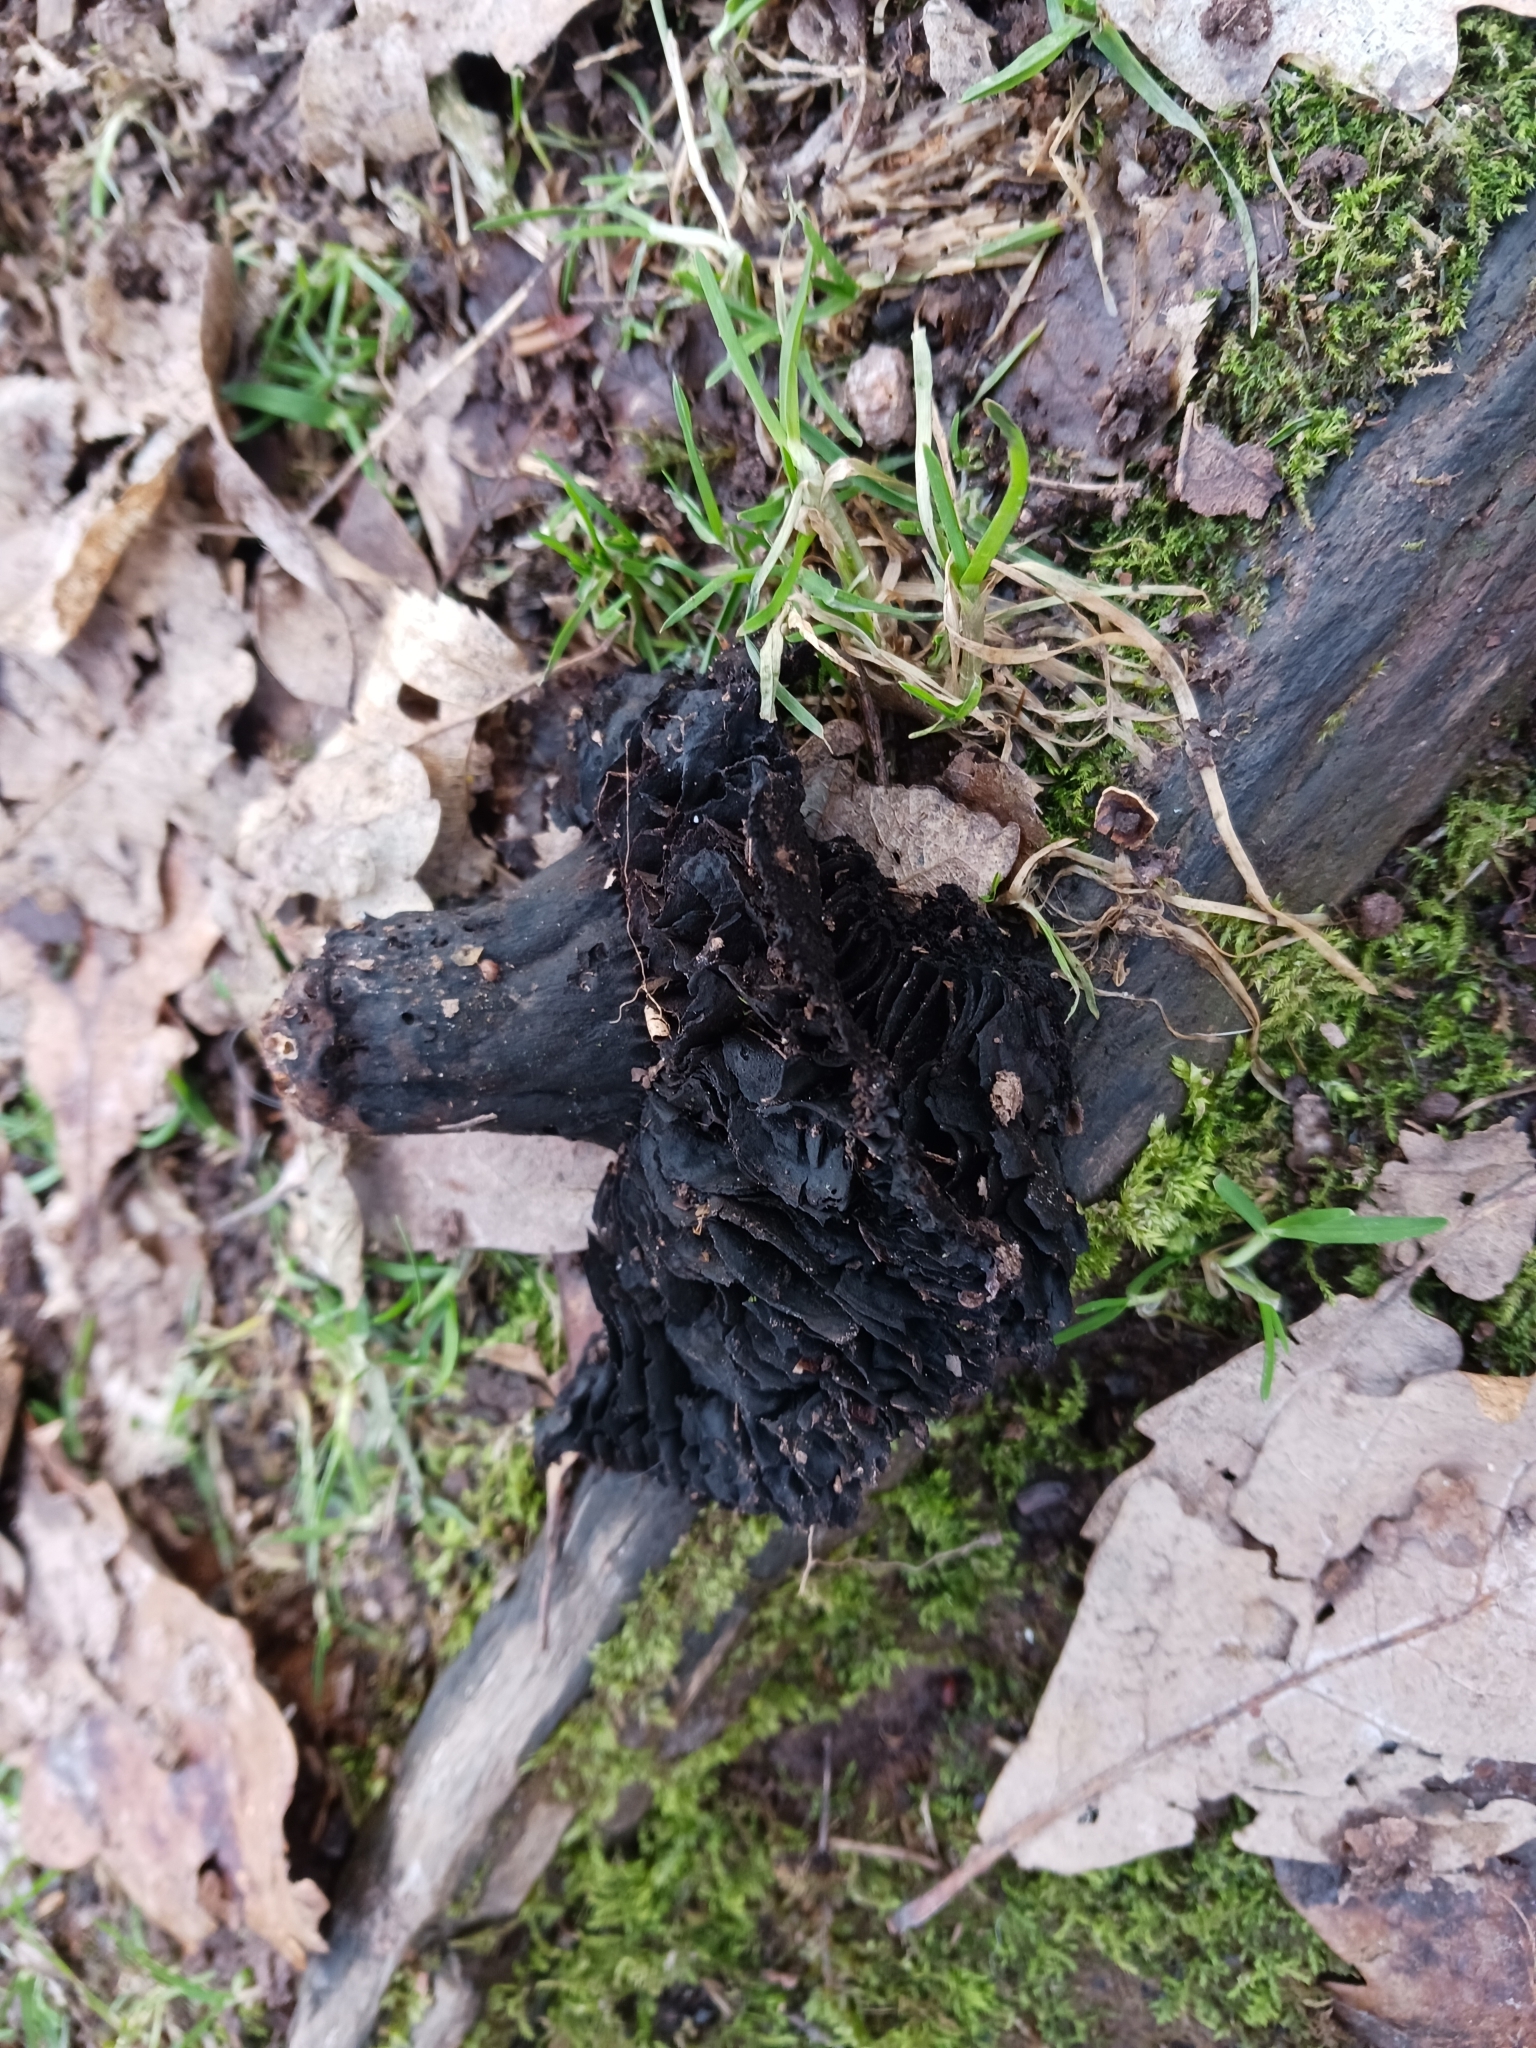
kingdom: Fungi
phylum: Basidiomycota
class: Agaricomycetes
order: Russulales
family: Russulaceae
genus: Russula
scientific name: Russula adusta
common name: Winecork brittlegill
